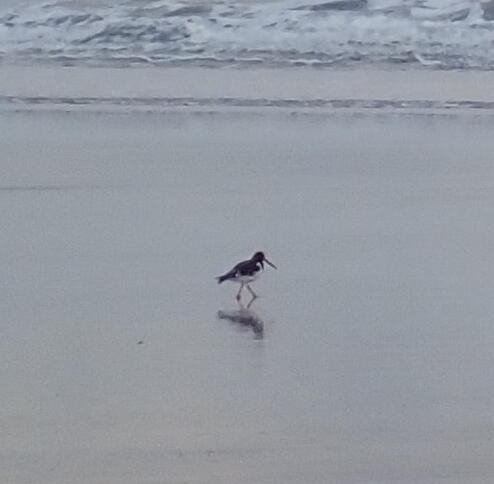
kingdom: Animalia
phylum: Chordata
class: Aves
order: Charadriiformes
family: Haematopodidae
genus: Haematopus
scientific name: Haematopus finschi
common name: South island oystercatcher
